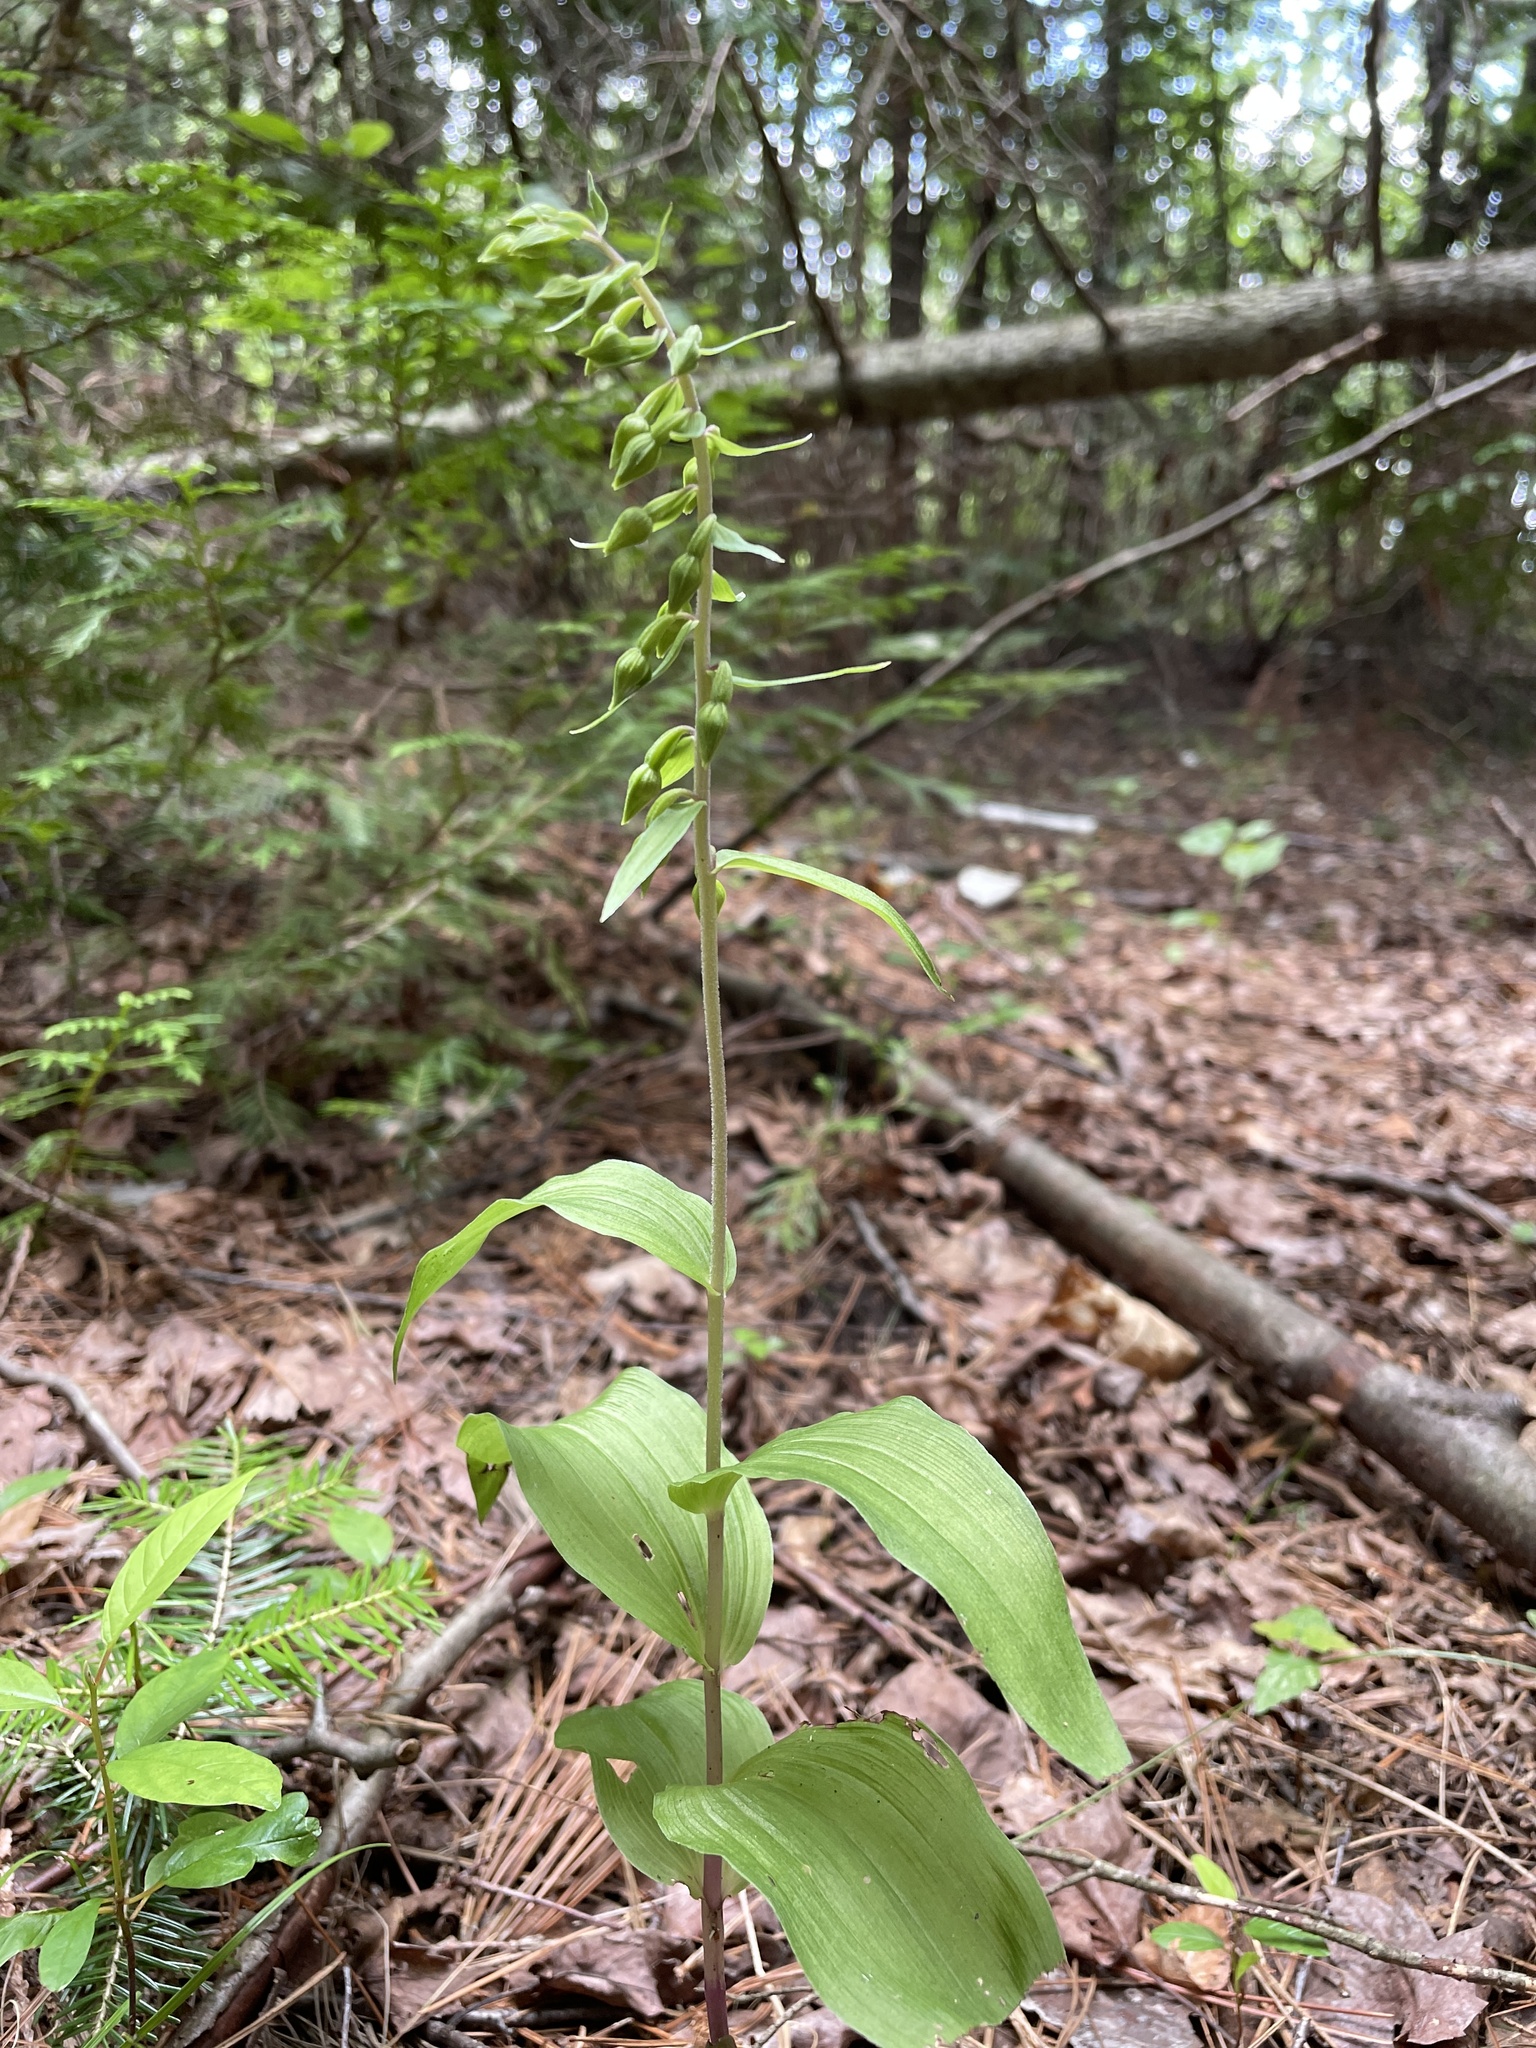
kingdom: Plantae
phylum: Tracheophyta
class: Liliopsida
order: Asparagales
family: Orchidaceae
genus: Epipactis
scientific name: Epipactis helleborine
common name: Broad-leaved helleborine
